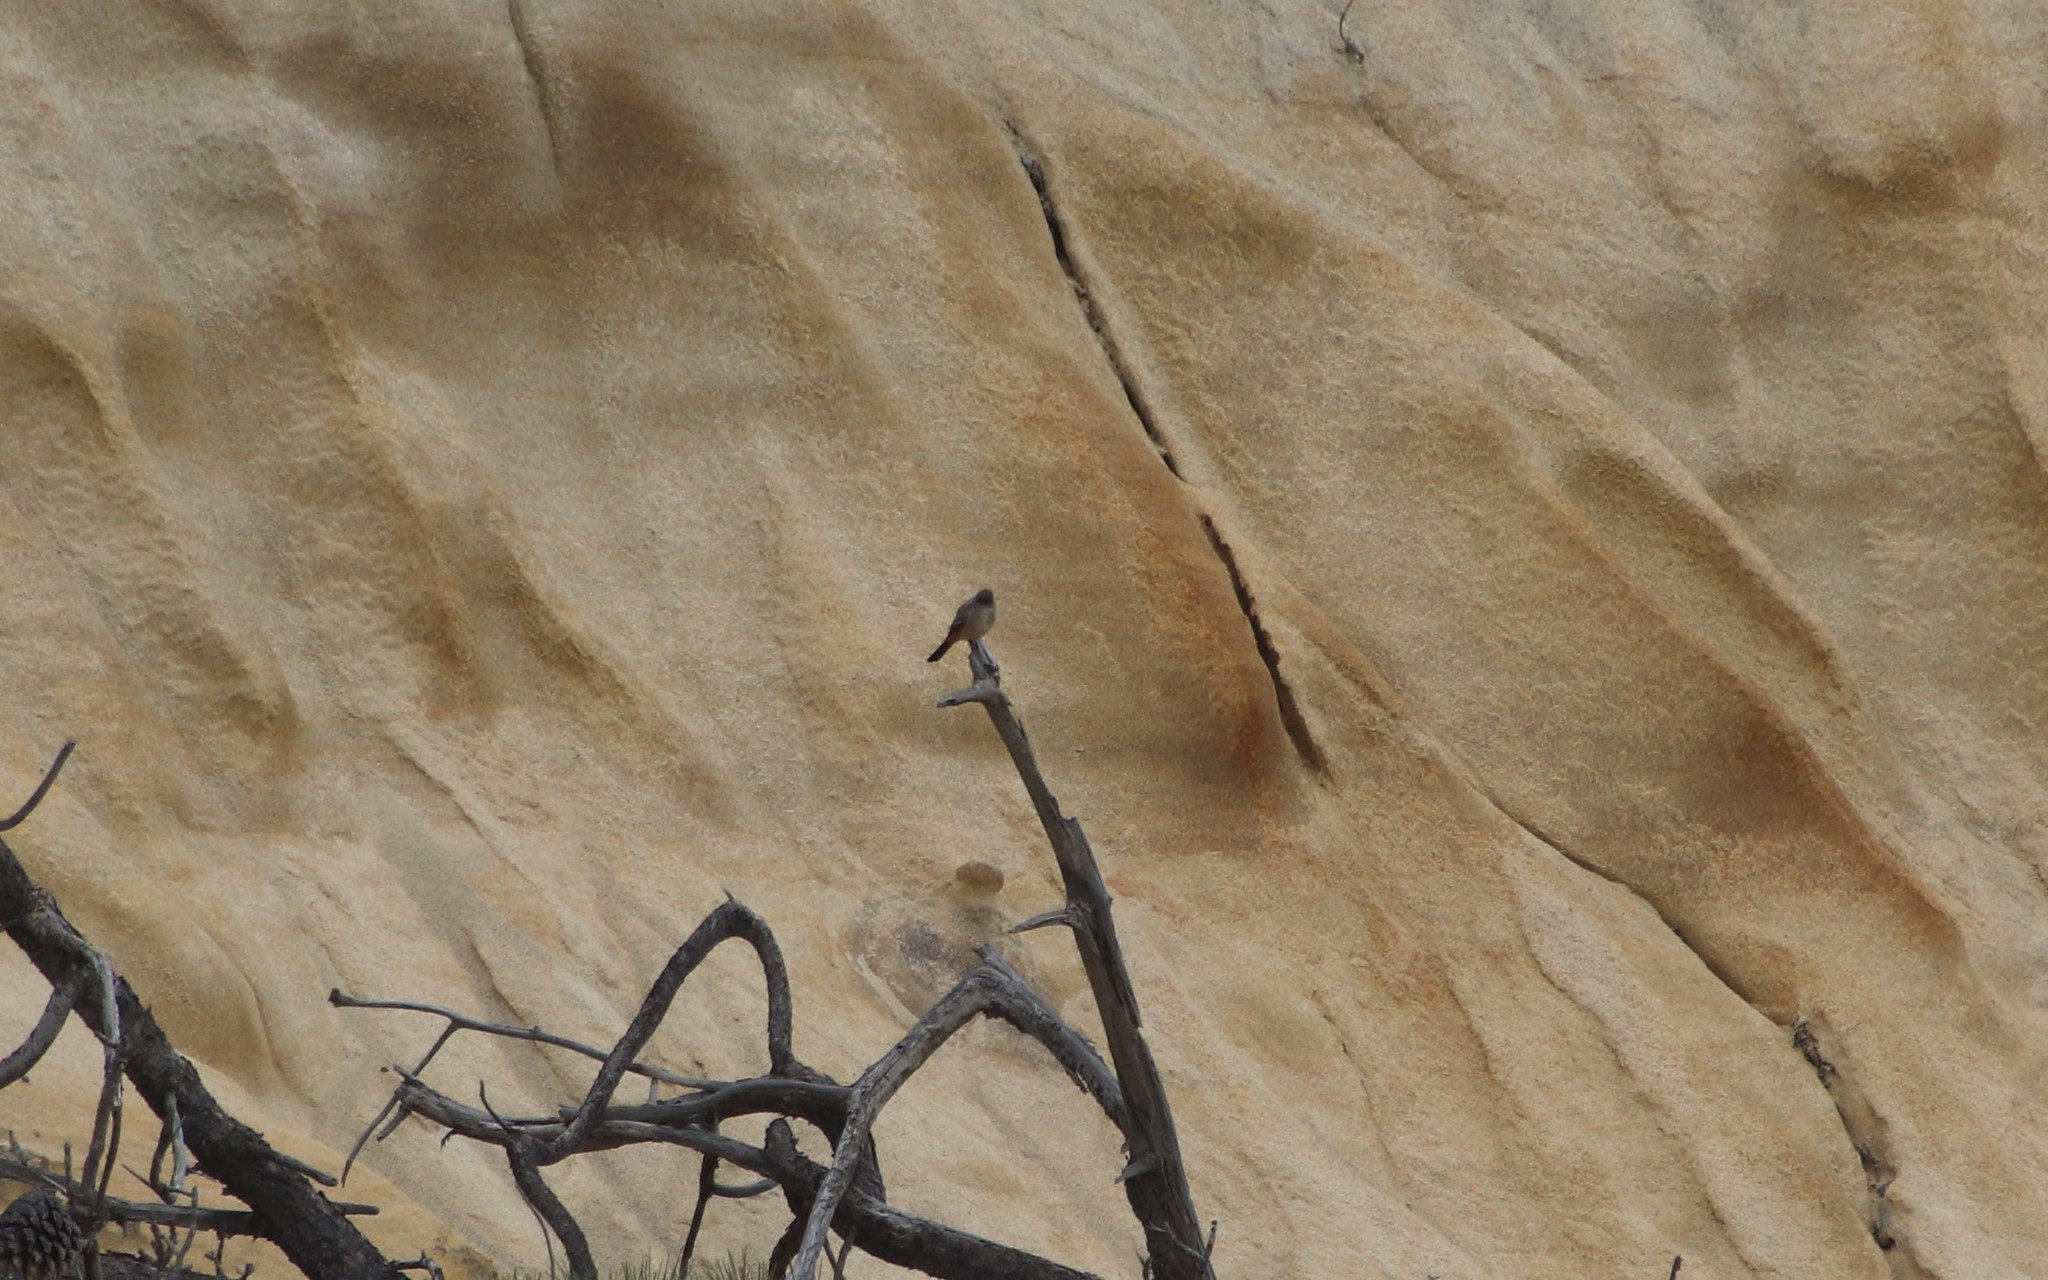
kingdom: Animalia
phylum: Chordata
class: Aves
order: Passeriformes
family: Tyrannidae
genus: Sayornis
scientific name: Sayornis saya
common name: Say's phoebe
